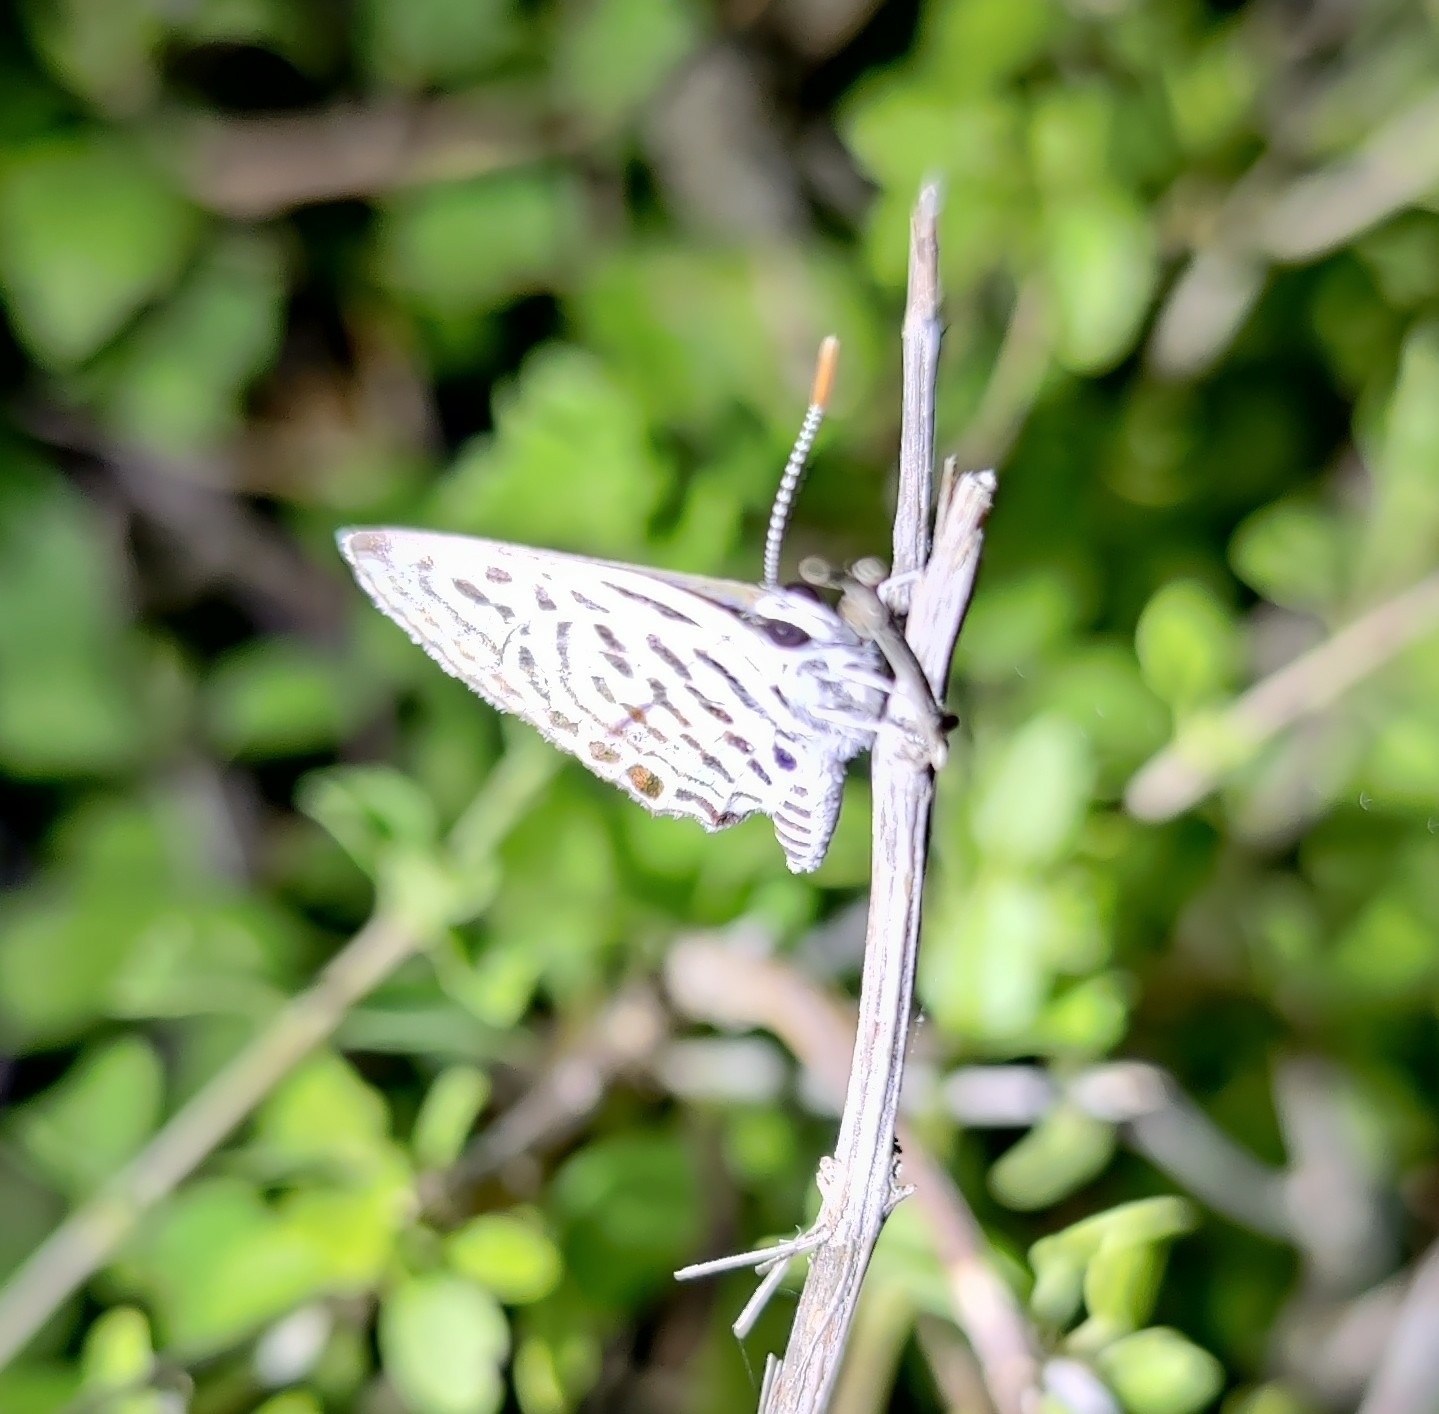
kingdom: Animalia
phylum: Arthropoda
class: Insecta
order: Lepidoptera
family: Lycaenidae
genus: Tarucus
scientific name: Tarucus balkanica
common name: Little tiger blue
